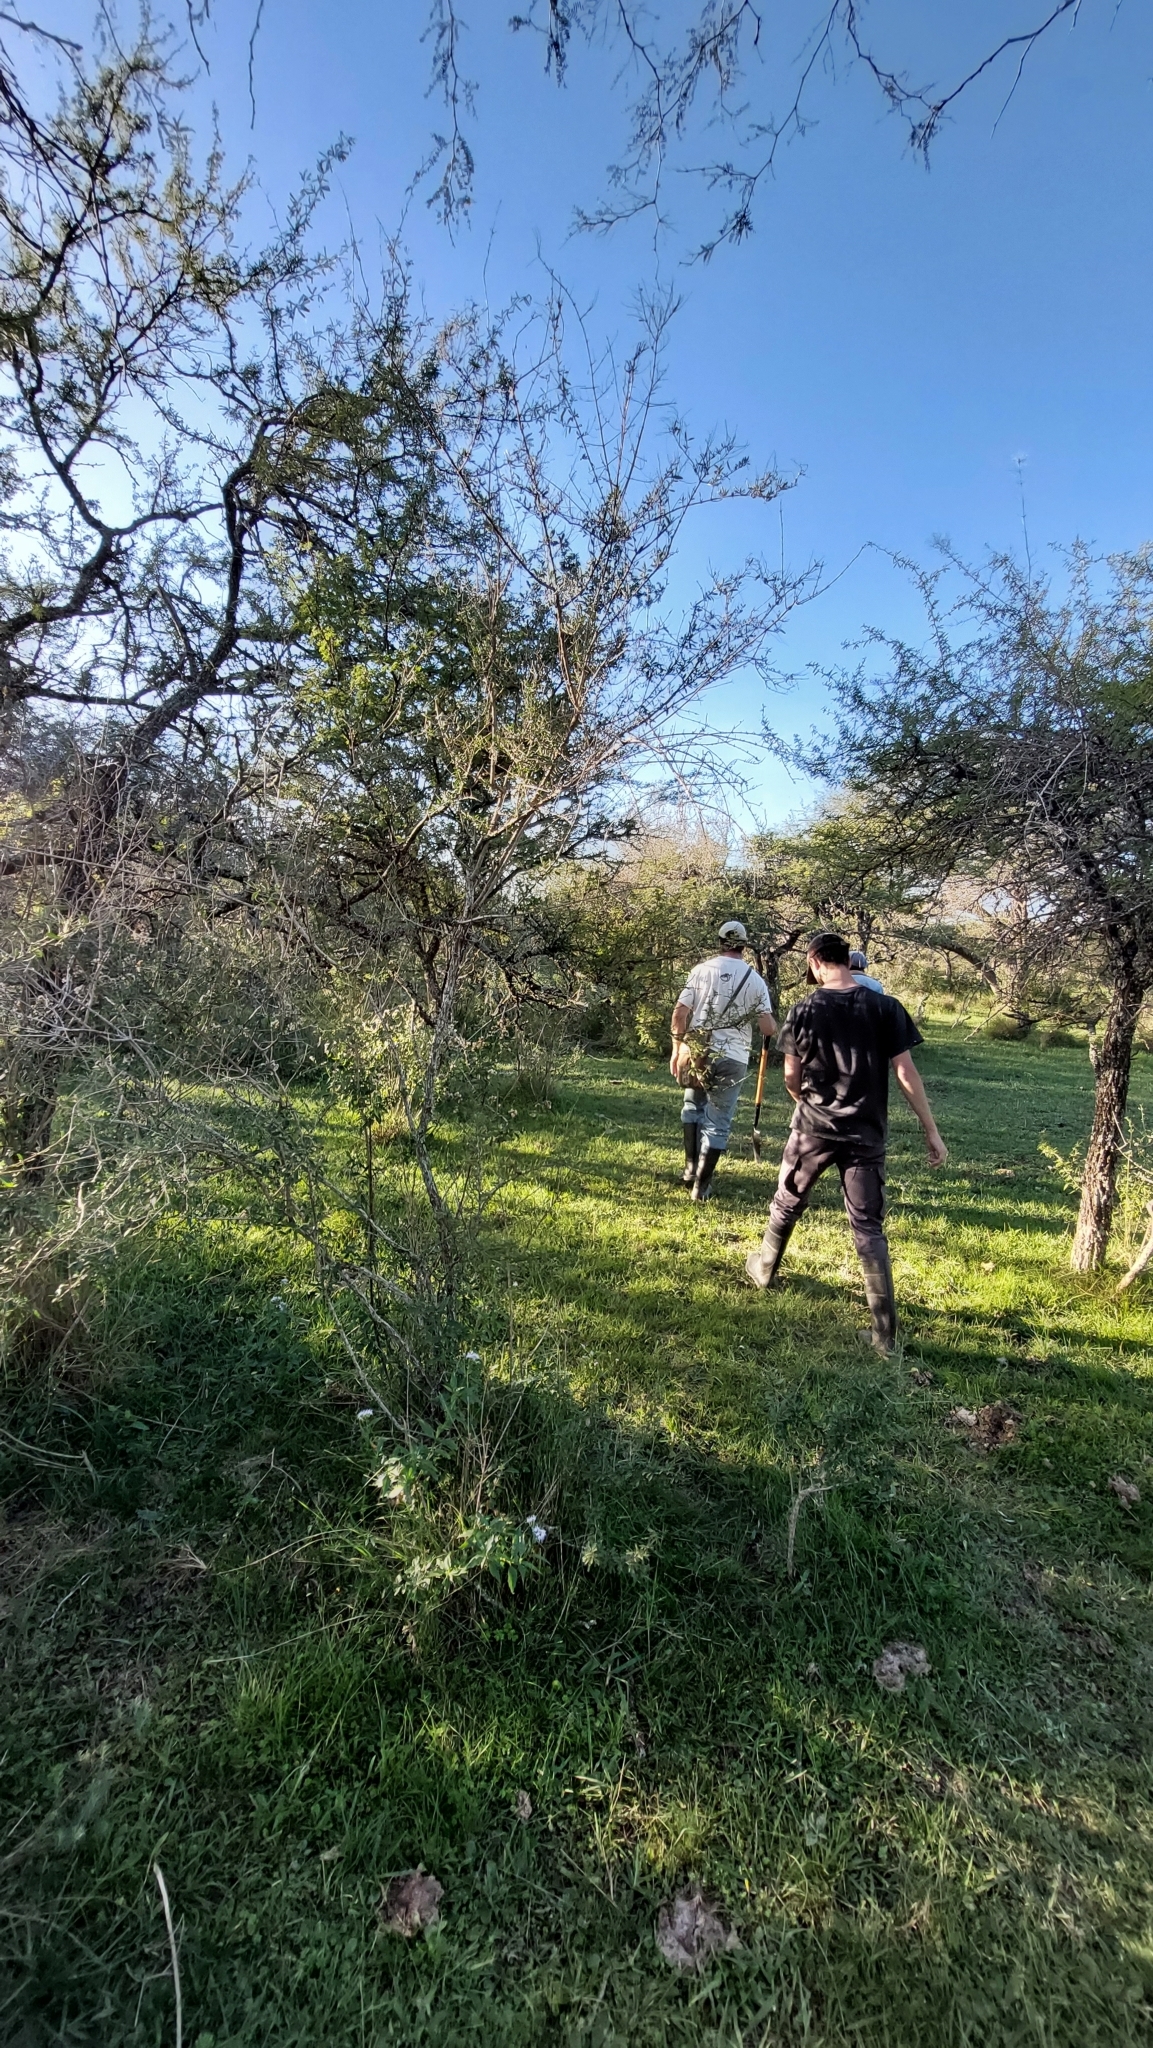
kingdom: Plantae
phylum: Tracheophyta
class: Magnoliopsida
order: Lamiales
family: Verbenaceae
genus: Aloysia
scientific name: Aloysia gratissima
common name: Common bee-brush
